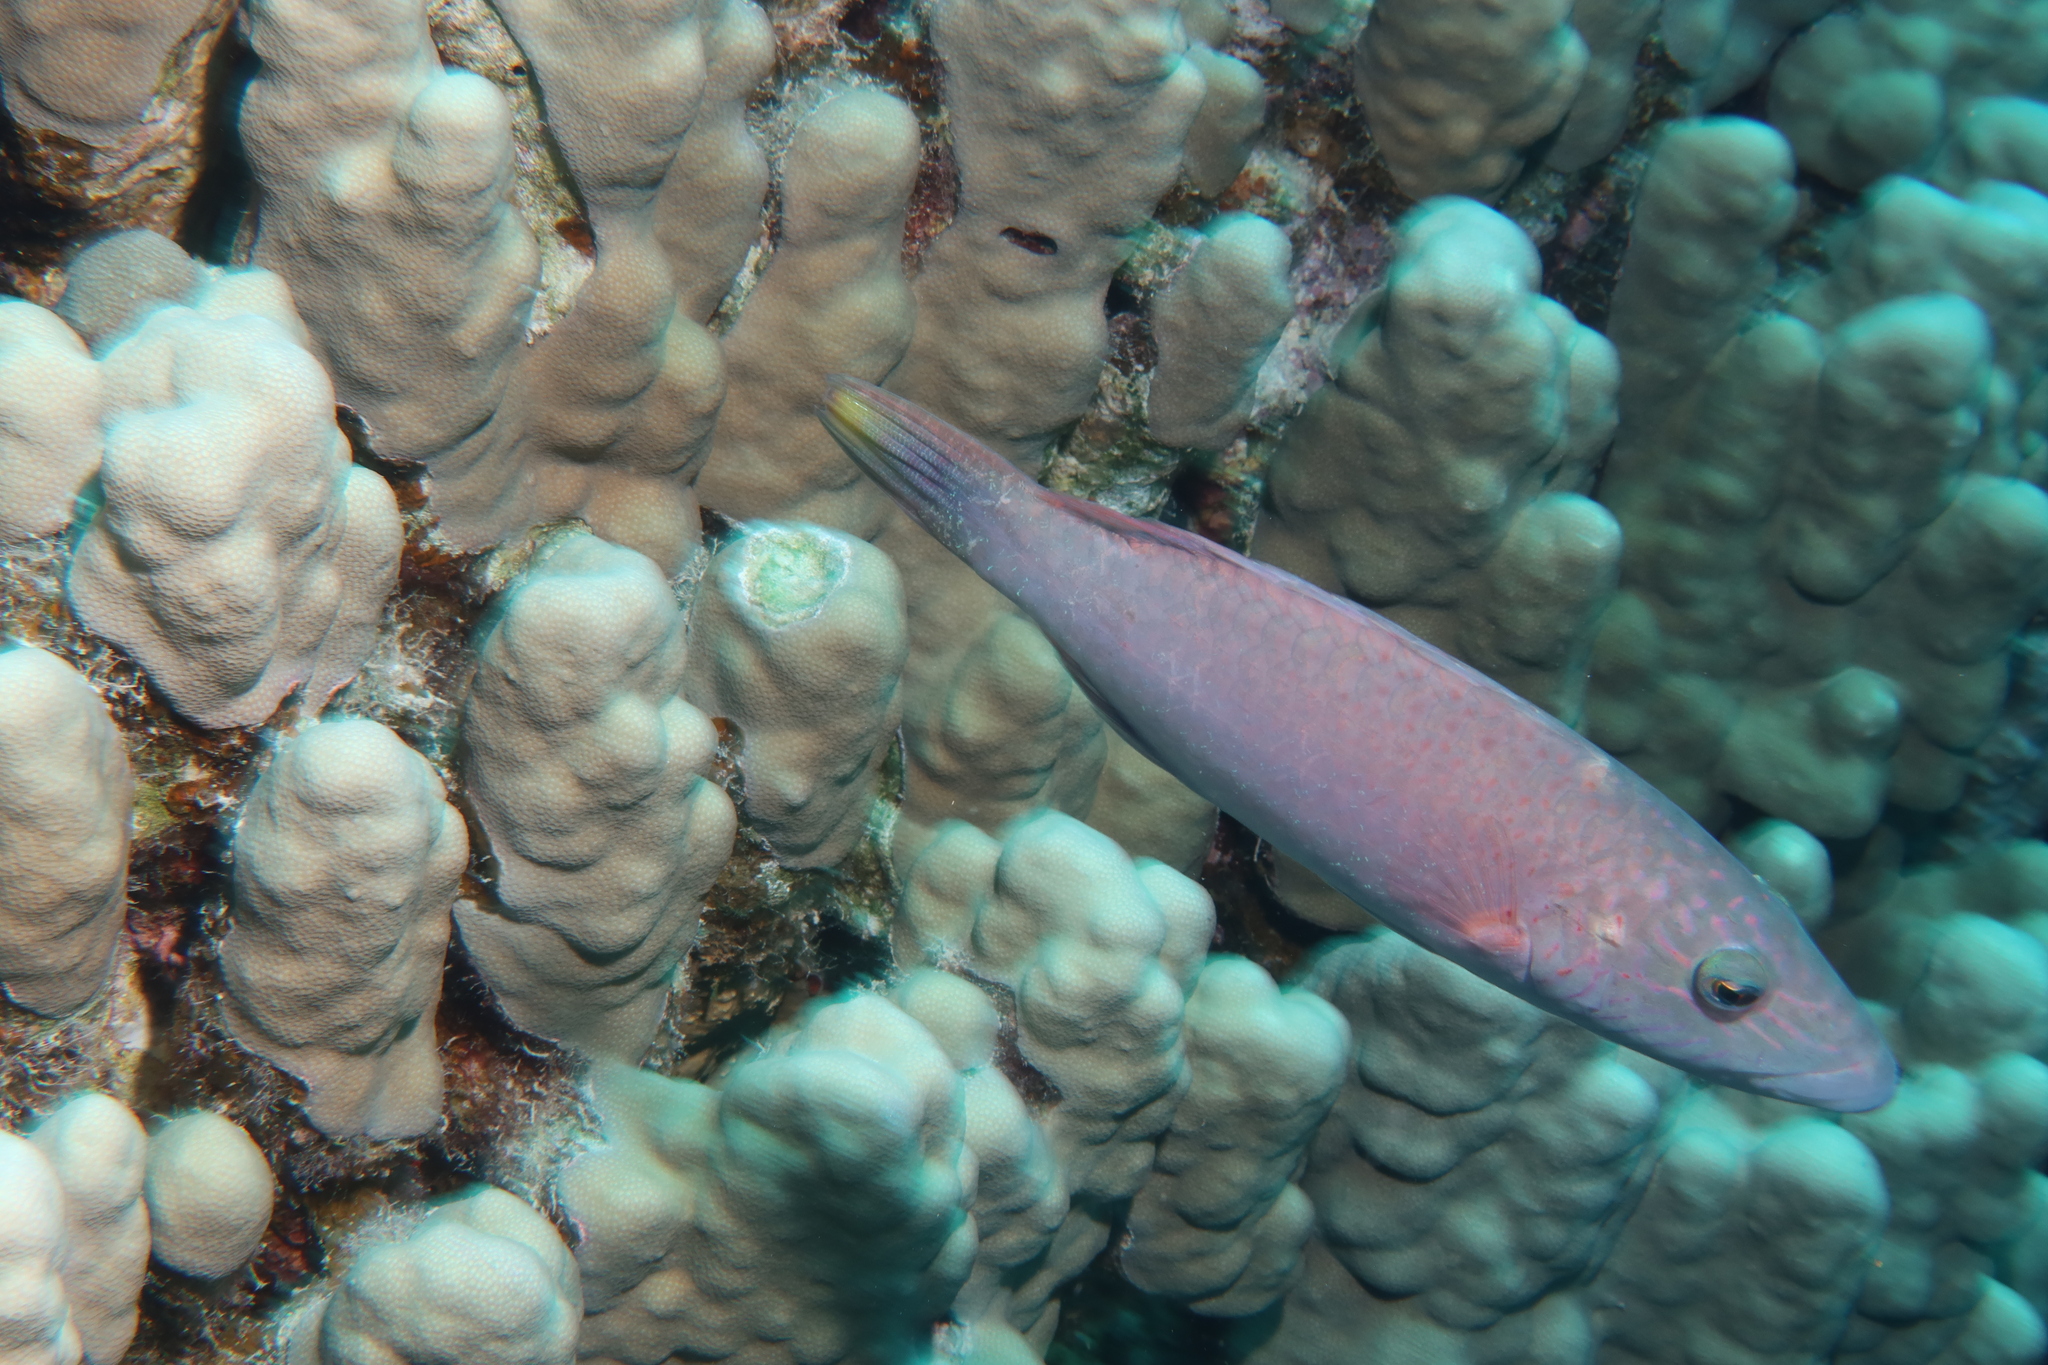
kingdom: Animalia
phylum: Chordata
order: Perciformes
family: Labridae
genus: Oxycheilinus
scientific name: Oxycheilinus digramma
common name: Bandcheek wrasse
